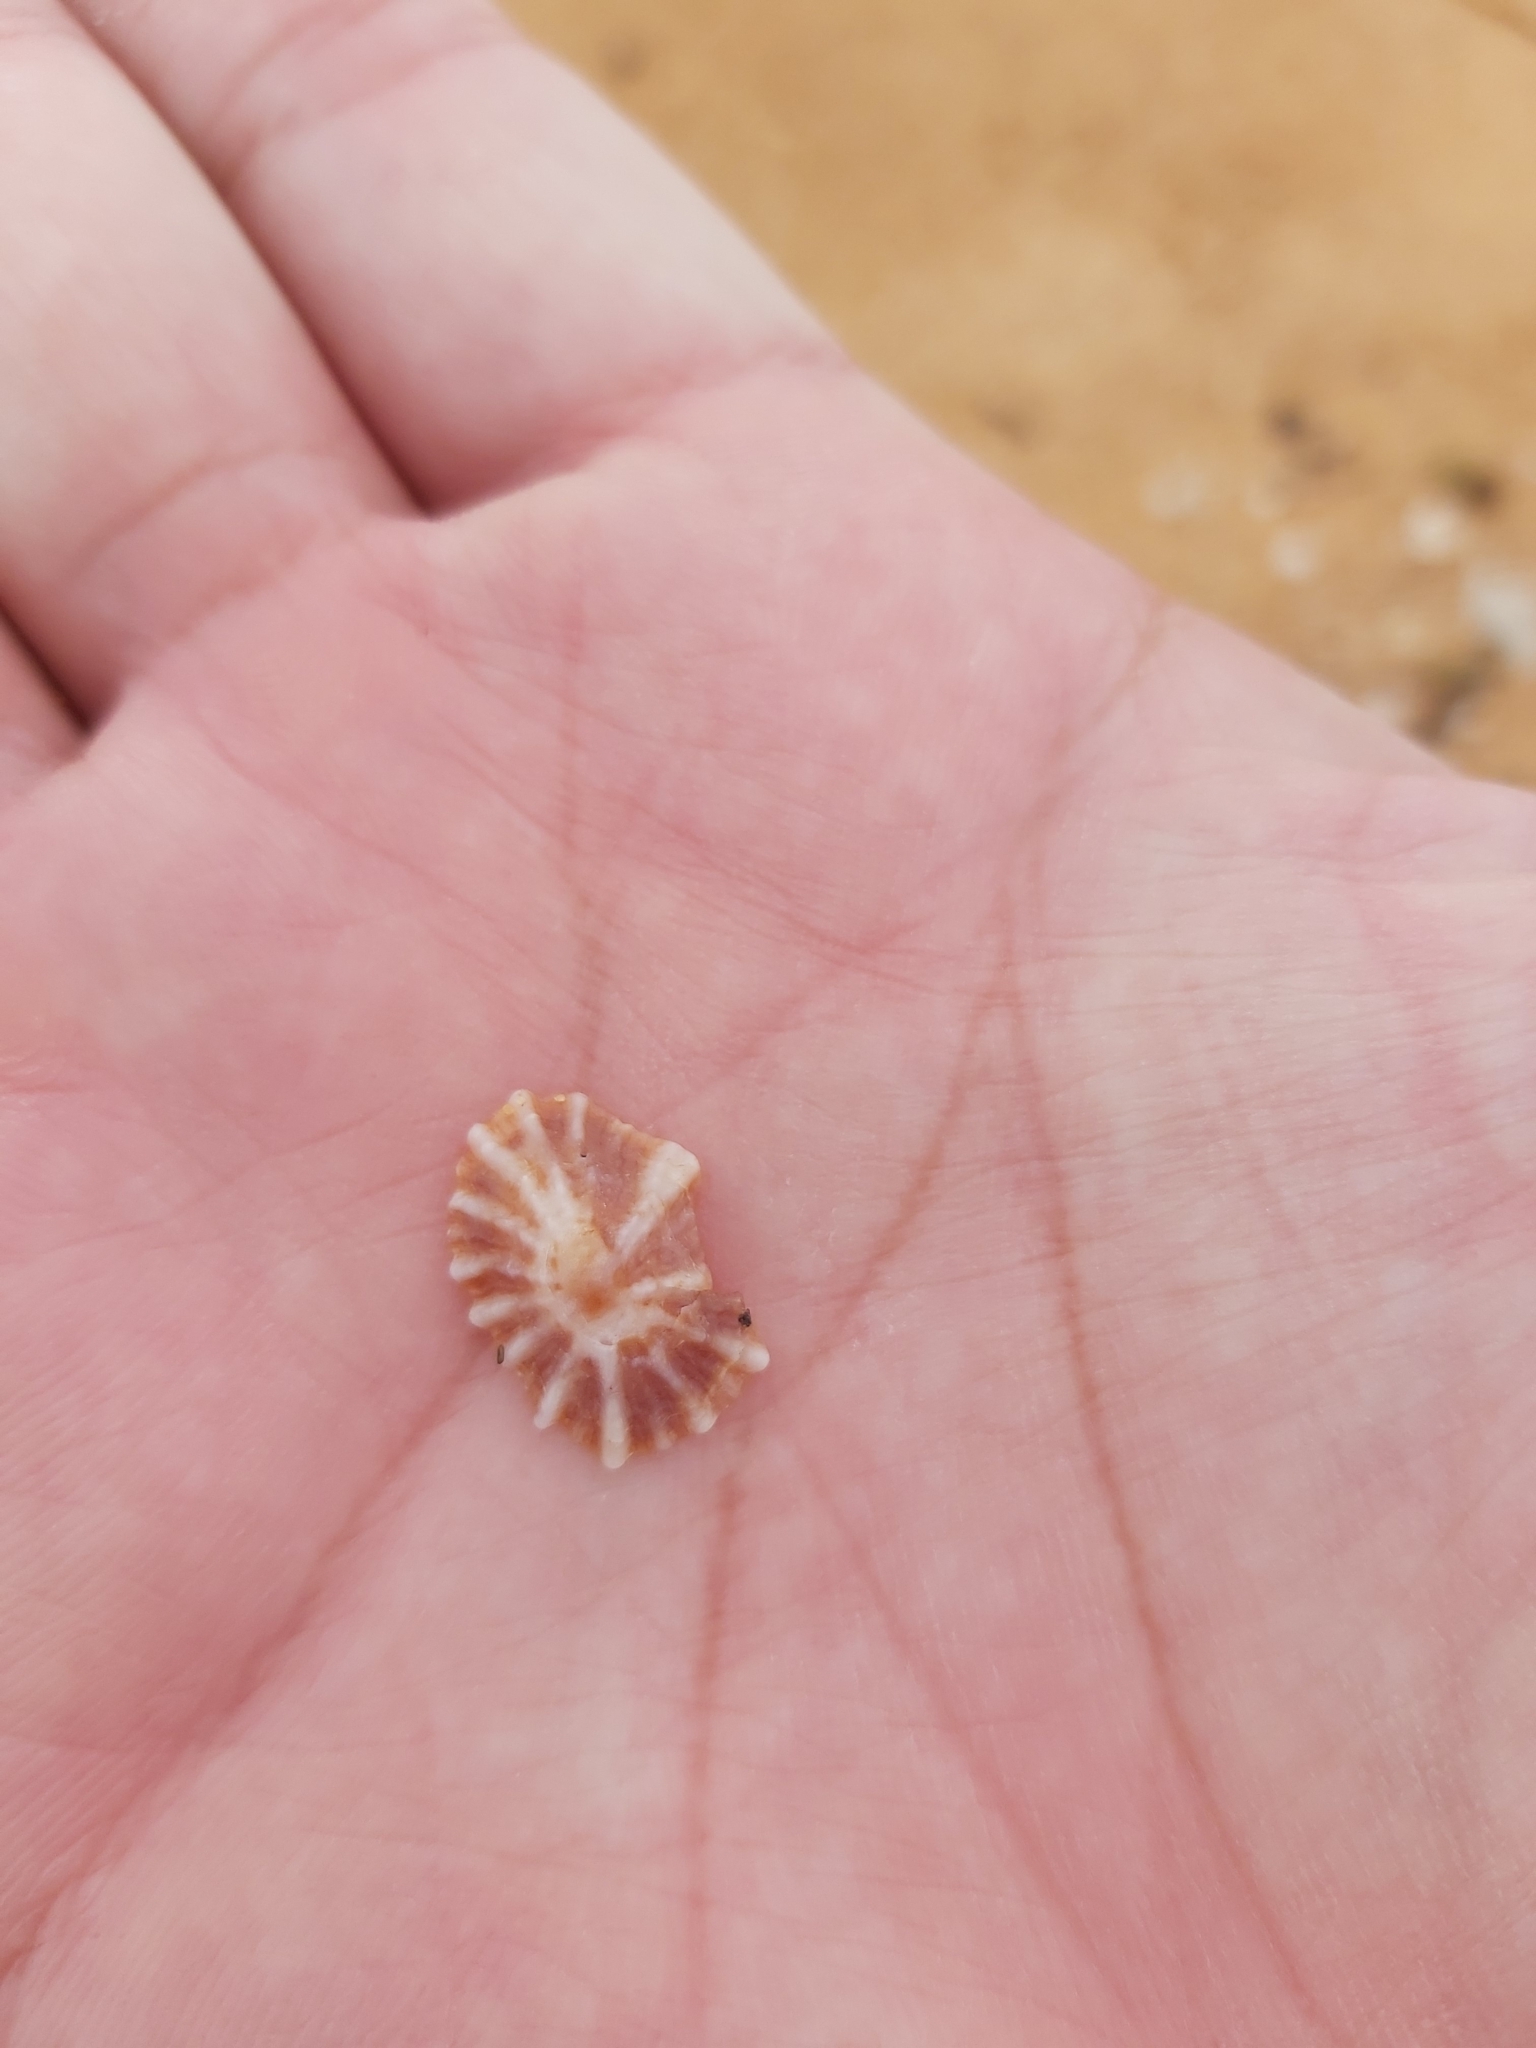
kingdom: Animalia
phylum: Mollusca
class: Gastropoda
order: Siphonariida
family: Siphonariidae
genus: Siphonaria
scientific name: Siphonaria denticulata
